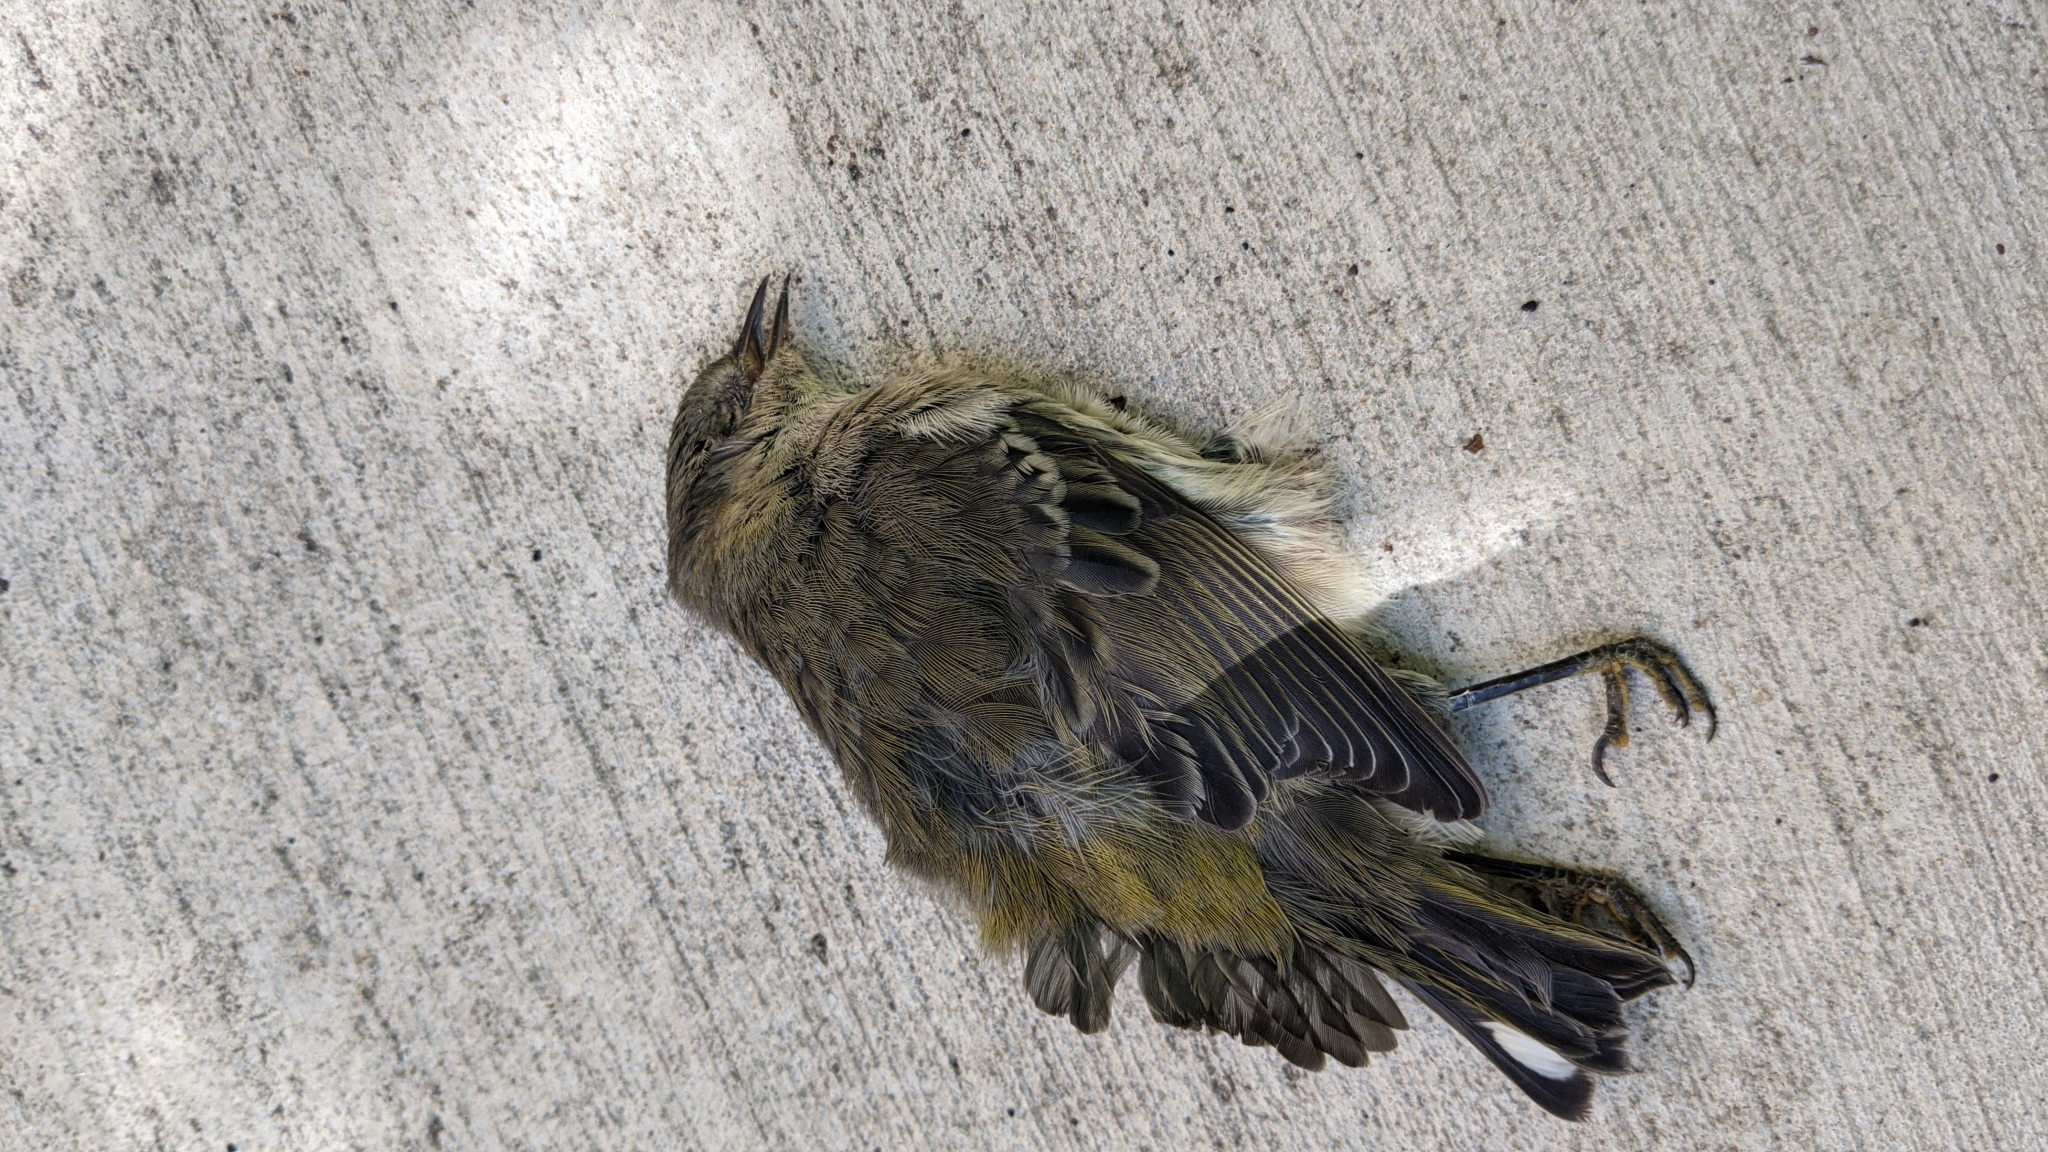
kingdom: Animalia
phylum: Chordata
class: Aves
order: Passeriformes
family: Parulidae
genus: Setophaga
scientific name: Setophaga tigrina
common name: Cape may warbler
